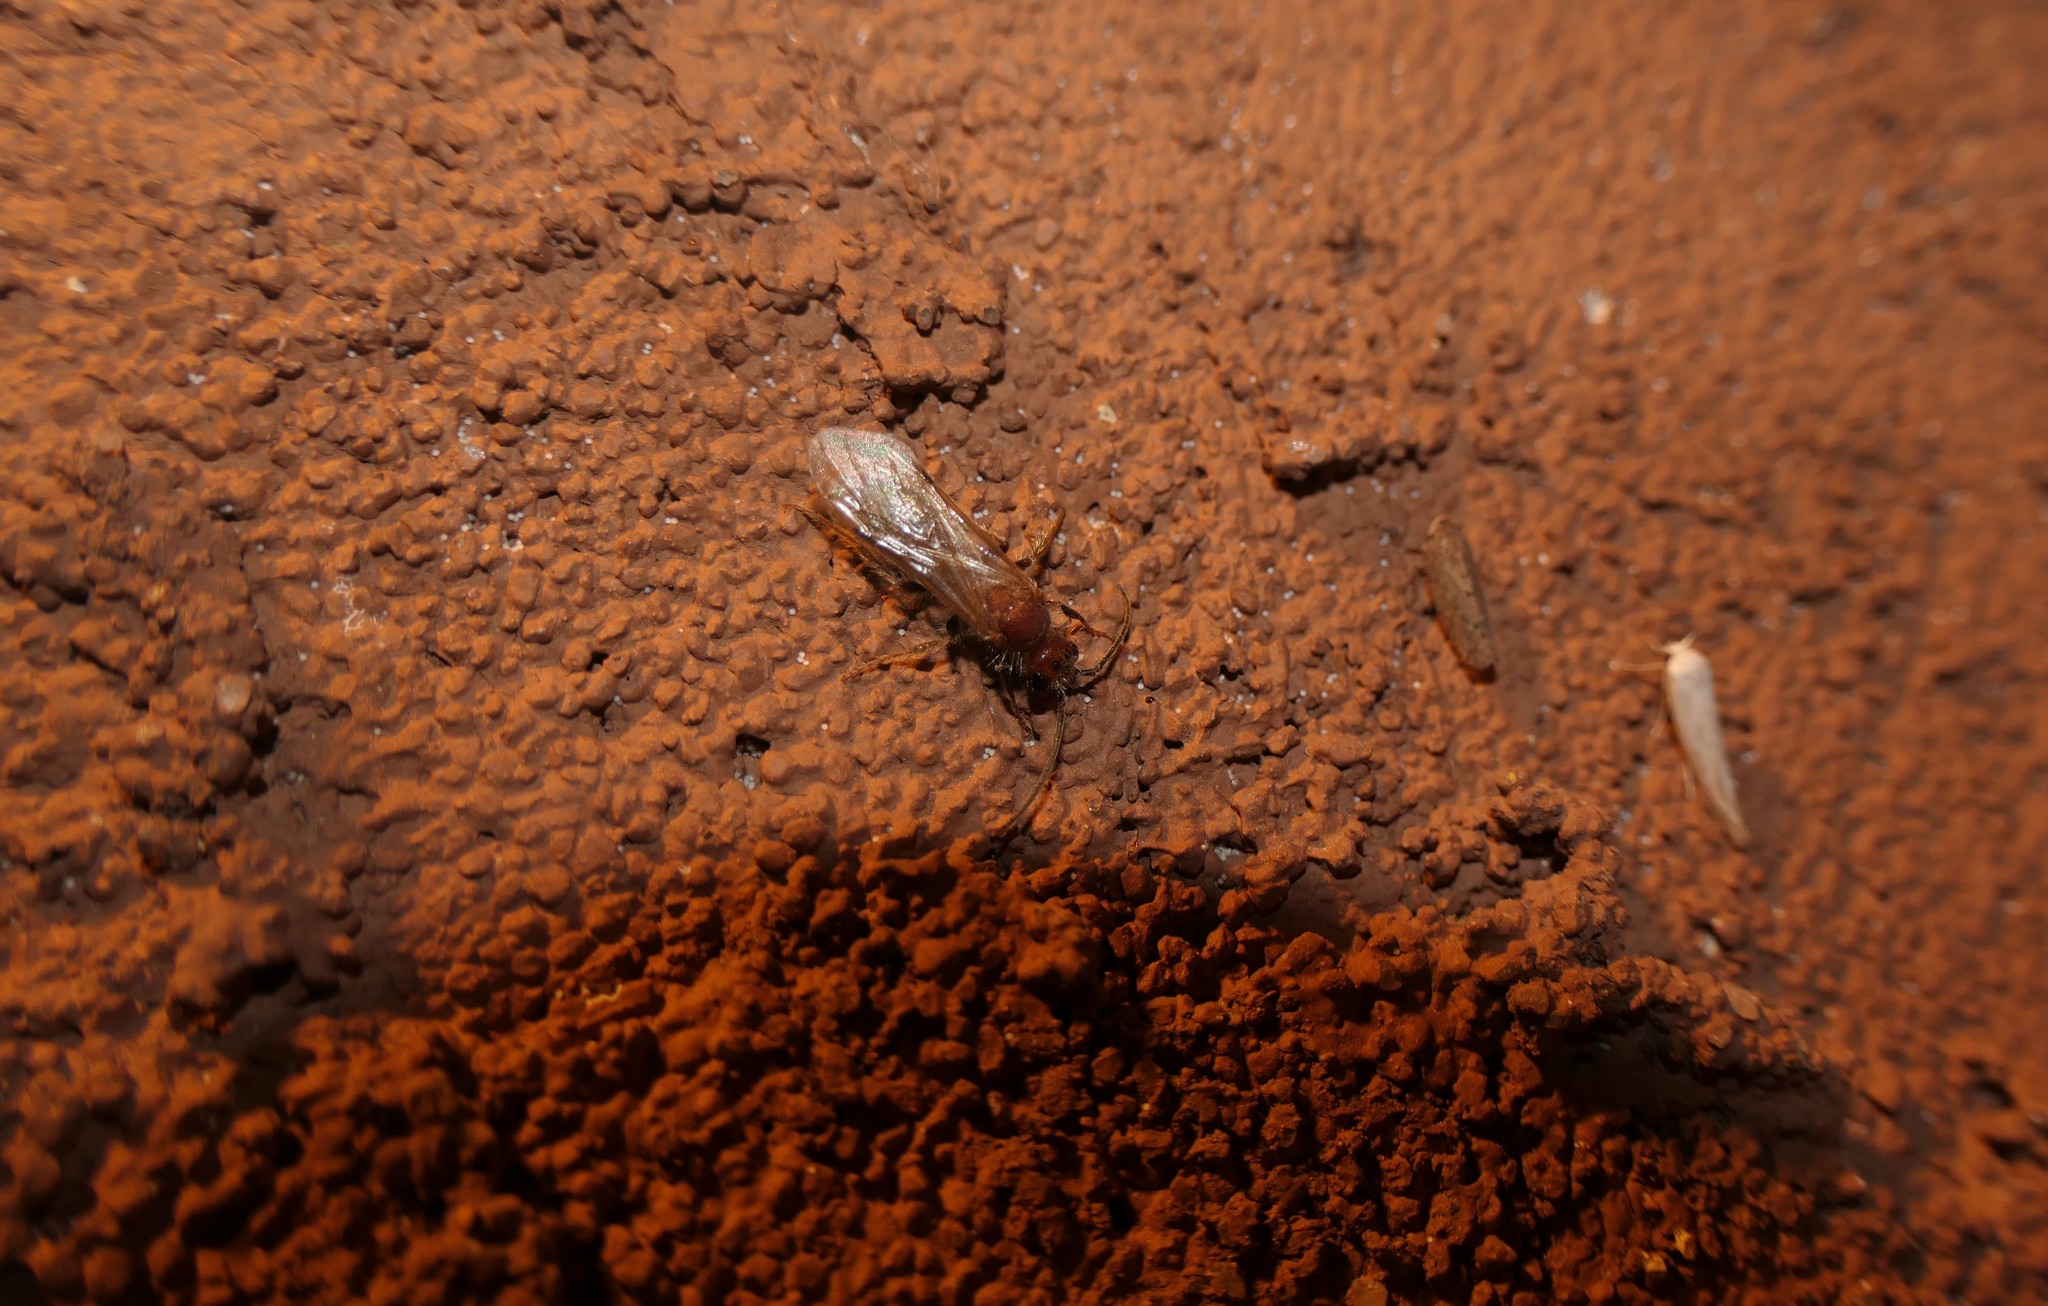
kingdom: Animalia
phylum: Arthropoda
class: Insecta
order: Hymenoptera
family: Mutillidae
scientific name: Mutillidae
